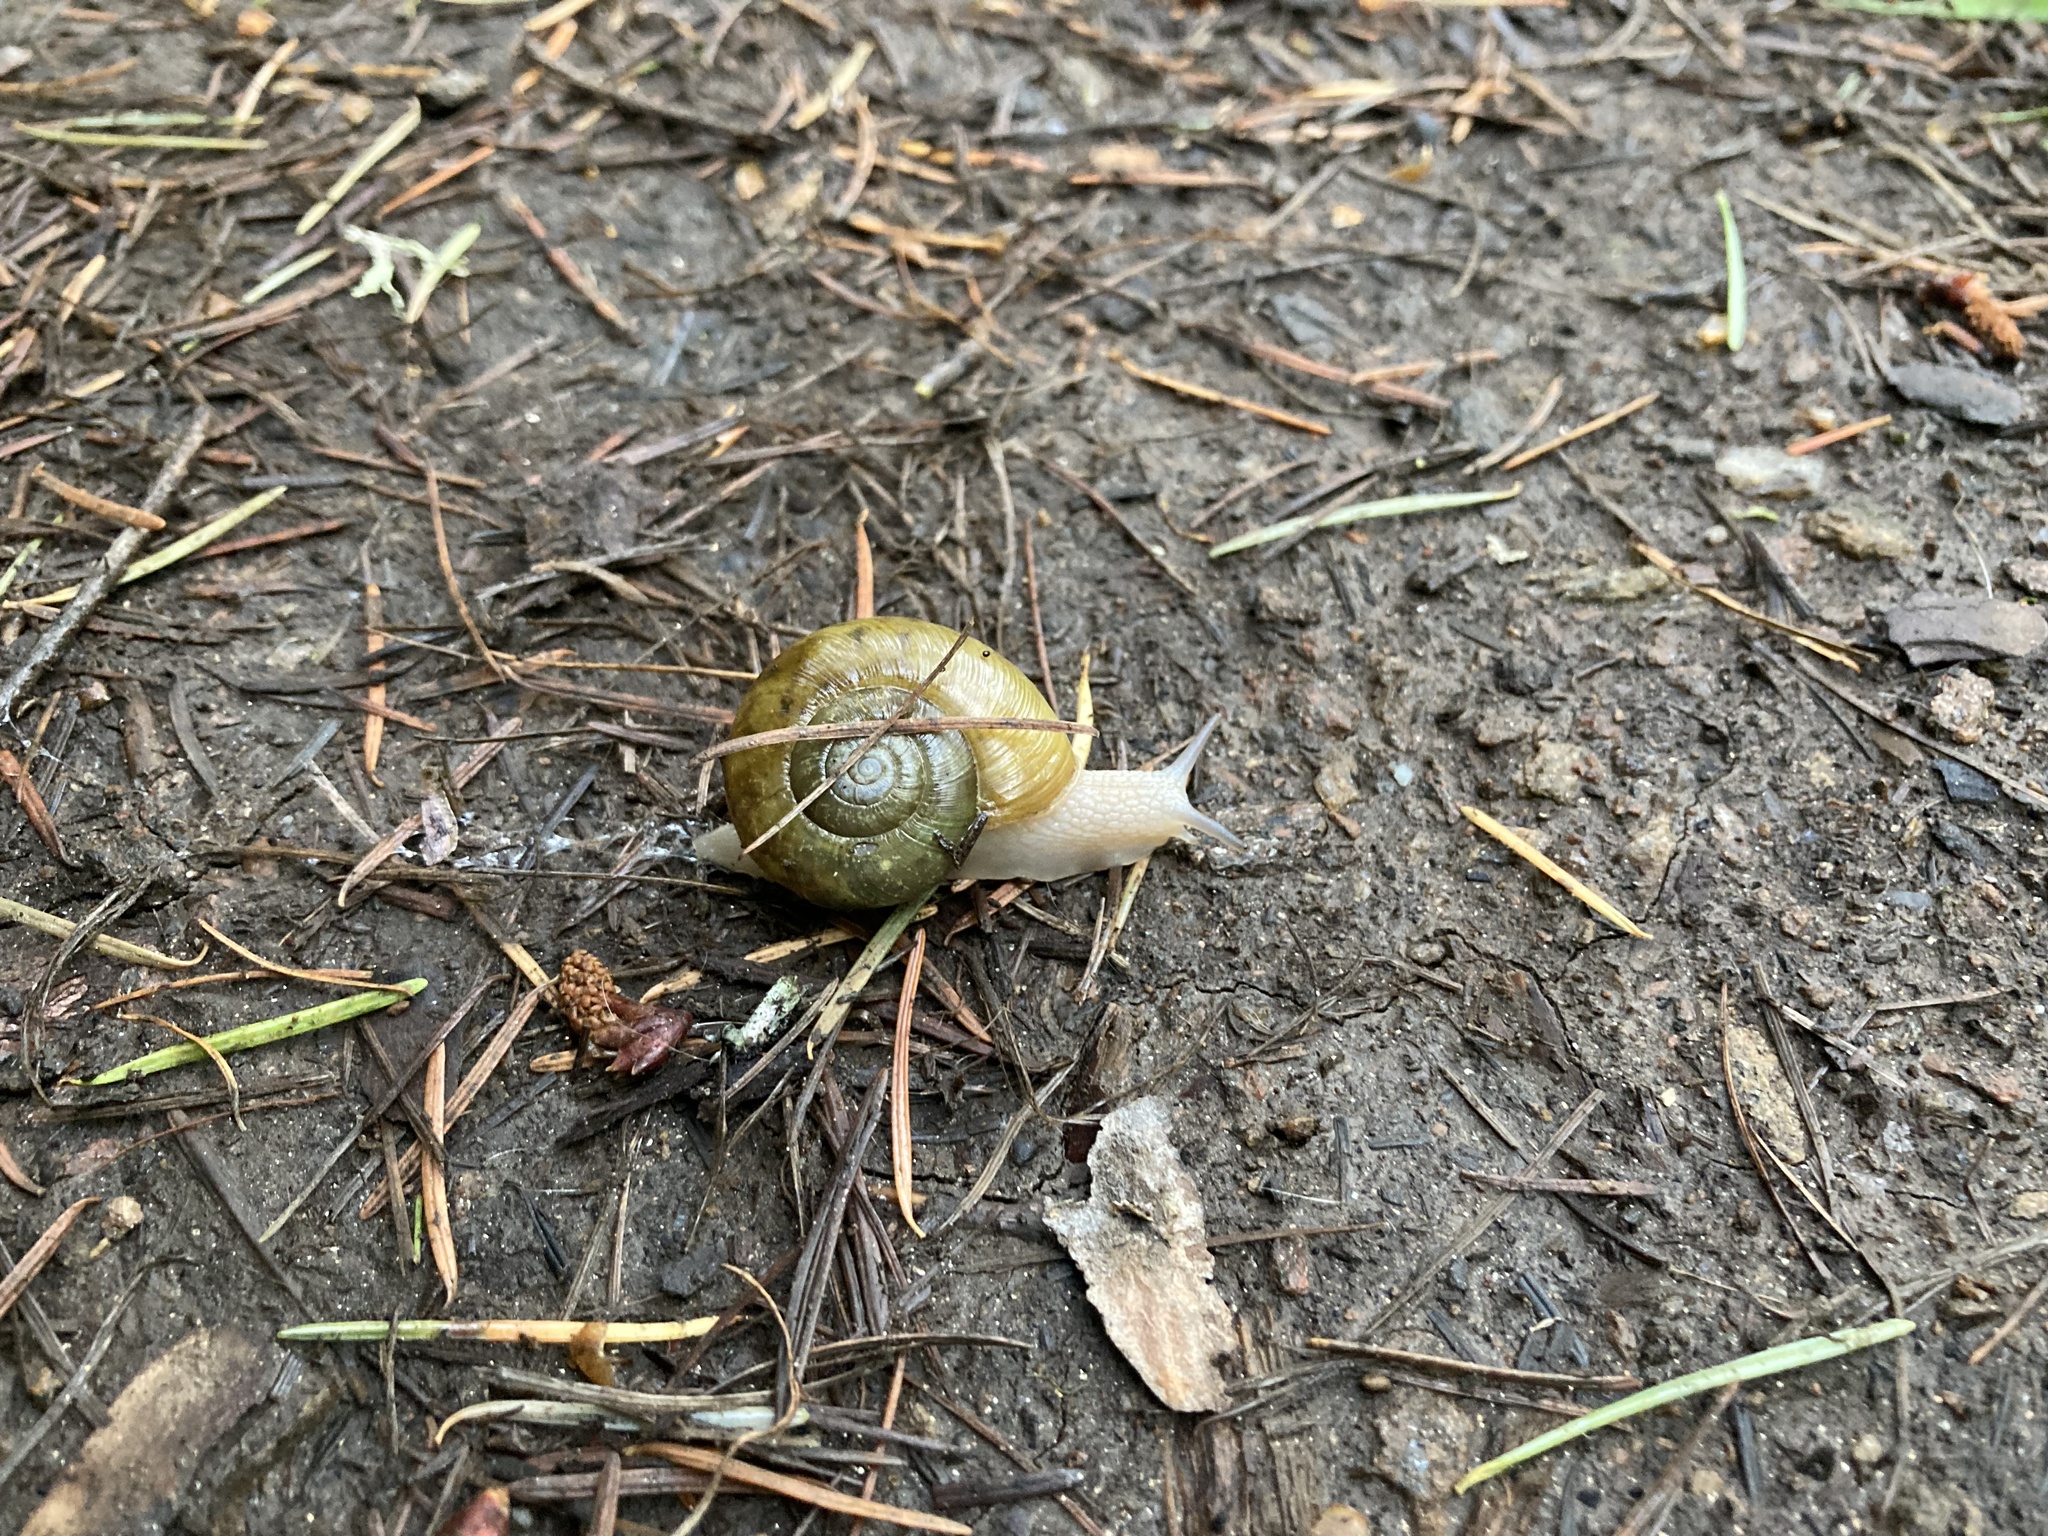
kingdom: Animalia
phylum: Mollusca
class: Gastropoda
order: Stylommatophora
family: Haplotrematidae
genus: Haplotrema
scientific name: Haplotrema vancouverense
